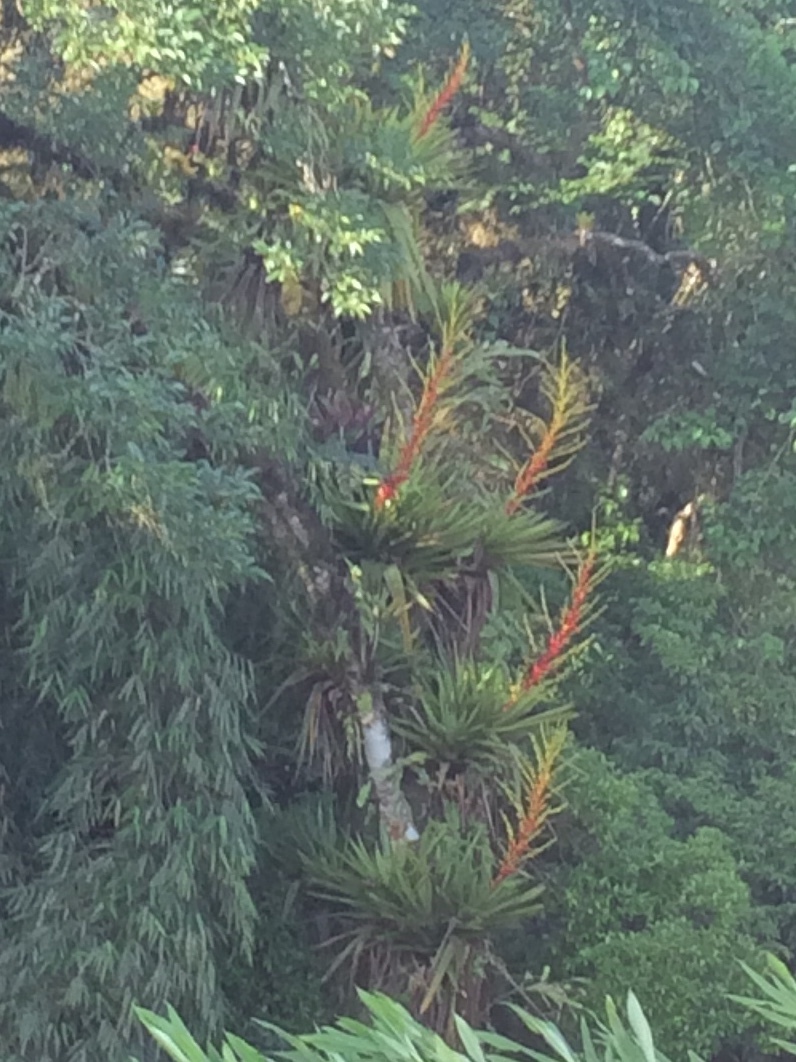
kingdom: Plantae
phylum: Tracheophyta
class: Liliopsida
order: Poales
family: Bromeliaceae
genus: Vriesea
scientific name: Vriesea altodaserrae
